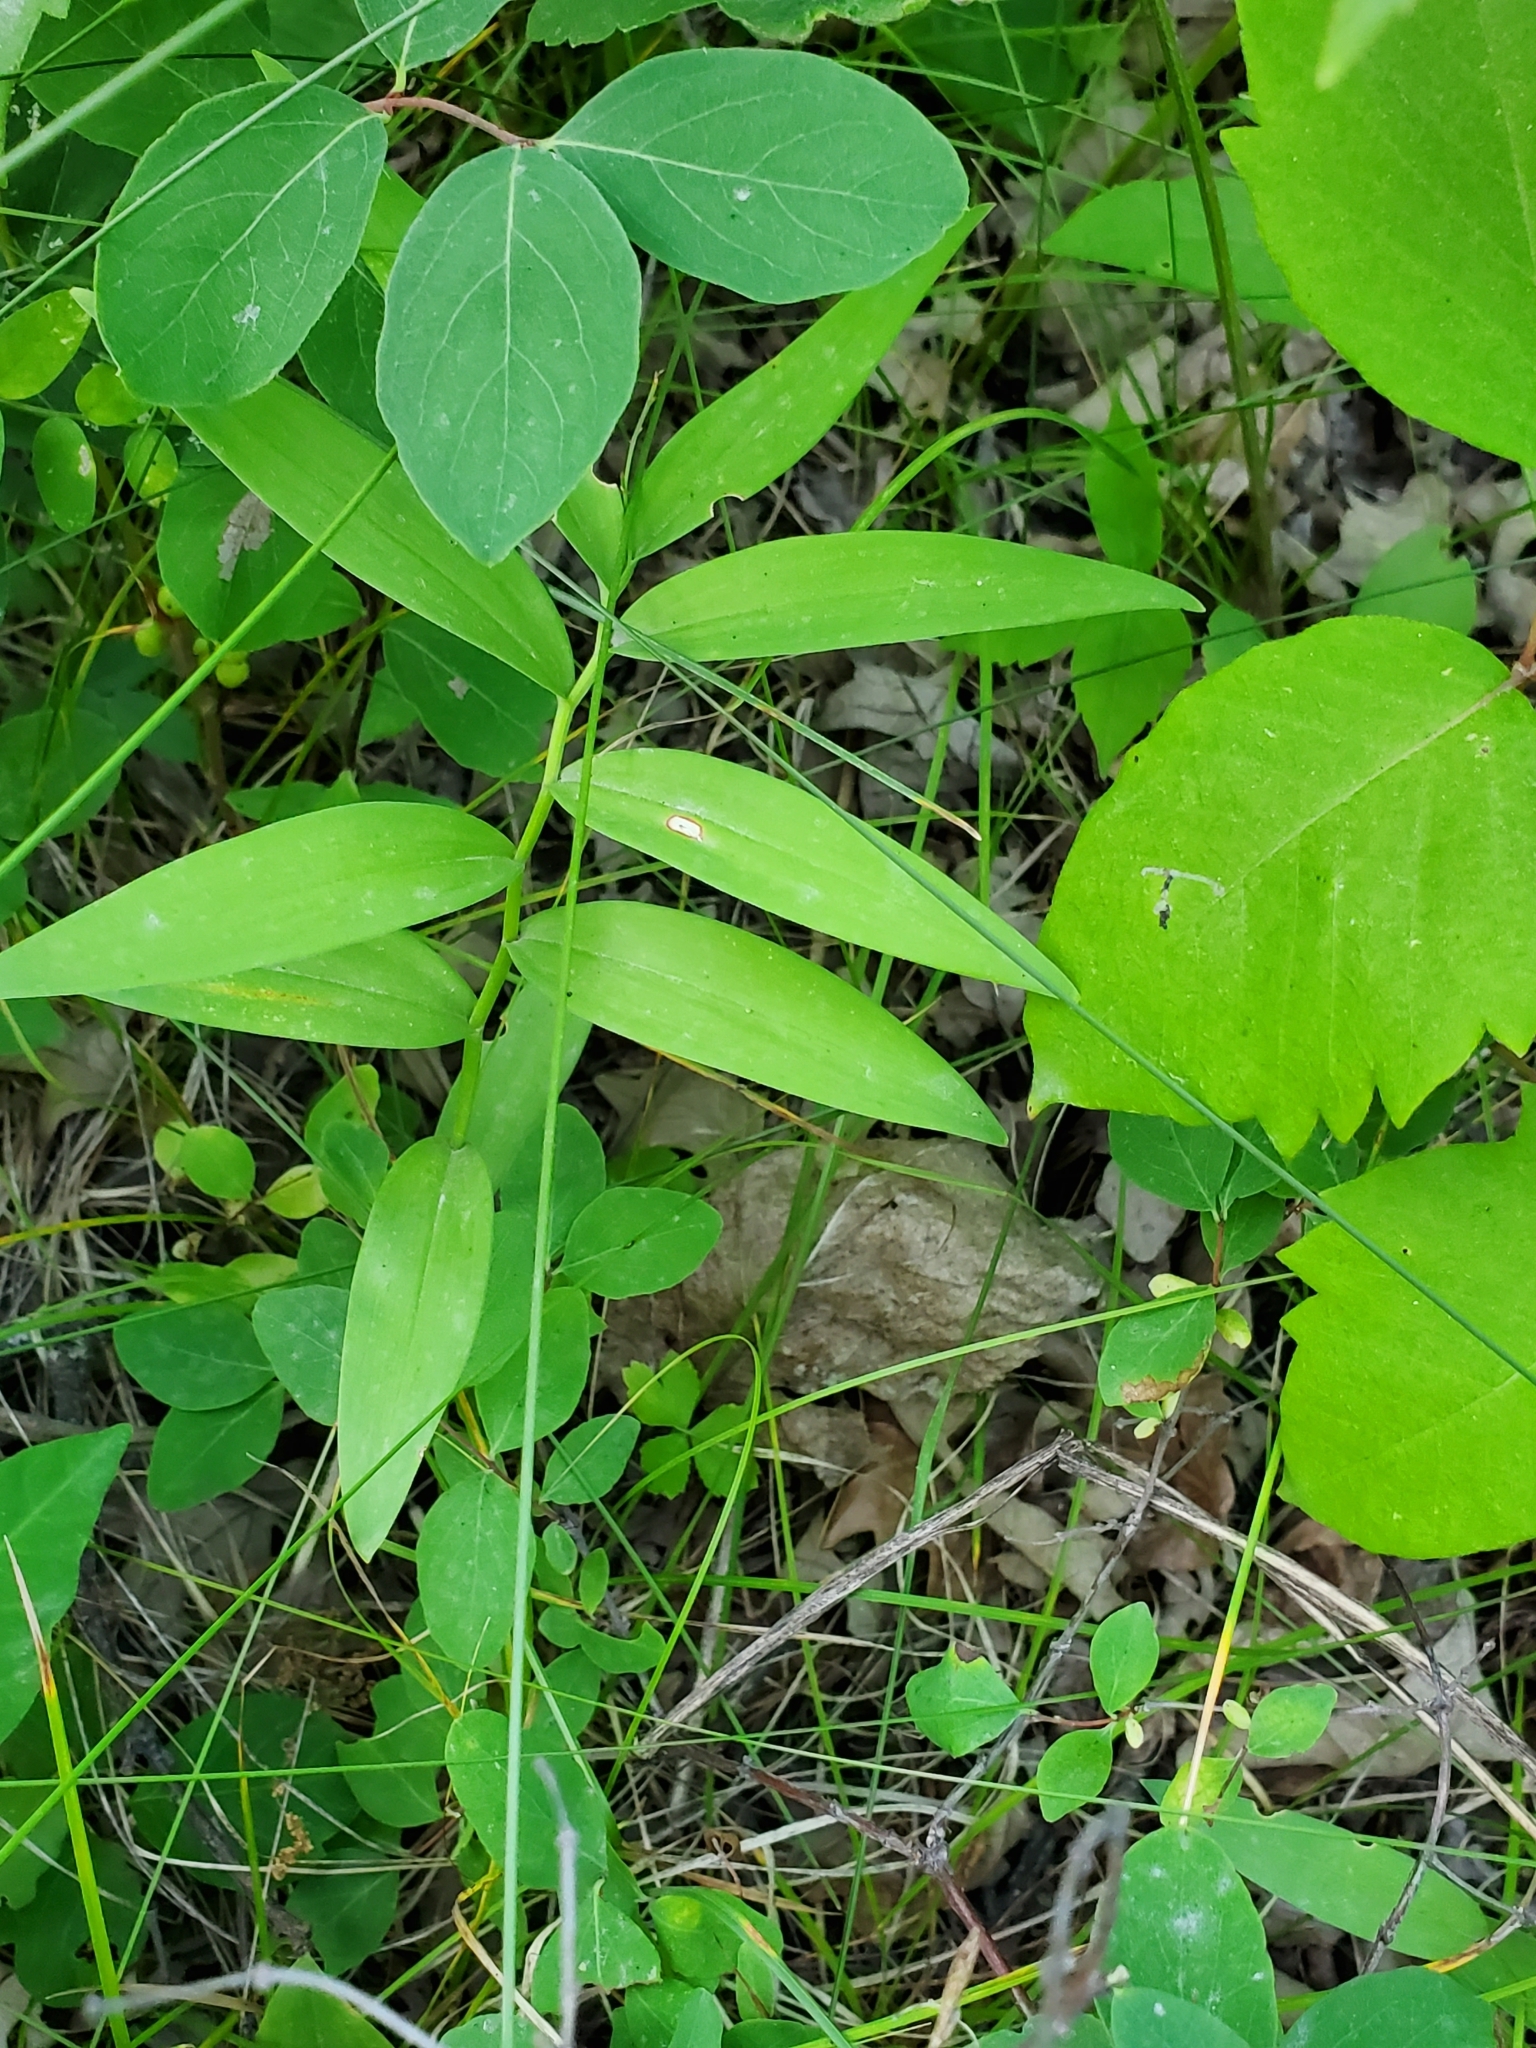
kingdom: Plantae
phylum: Tracheophyta
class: Liliopsida
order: Asparagales
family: Asparagaceae
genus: Maianthemum
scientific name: Maianthemum stellatum
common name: Little false solomon's seal
